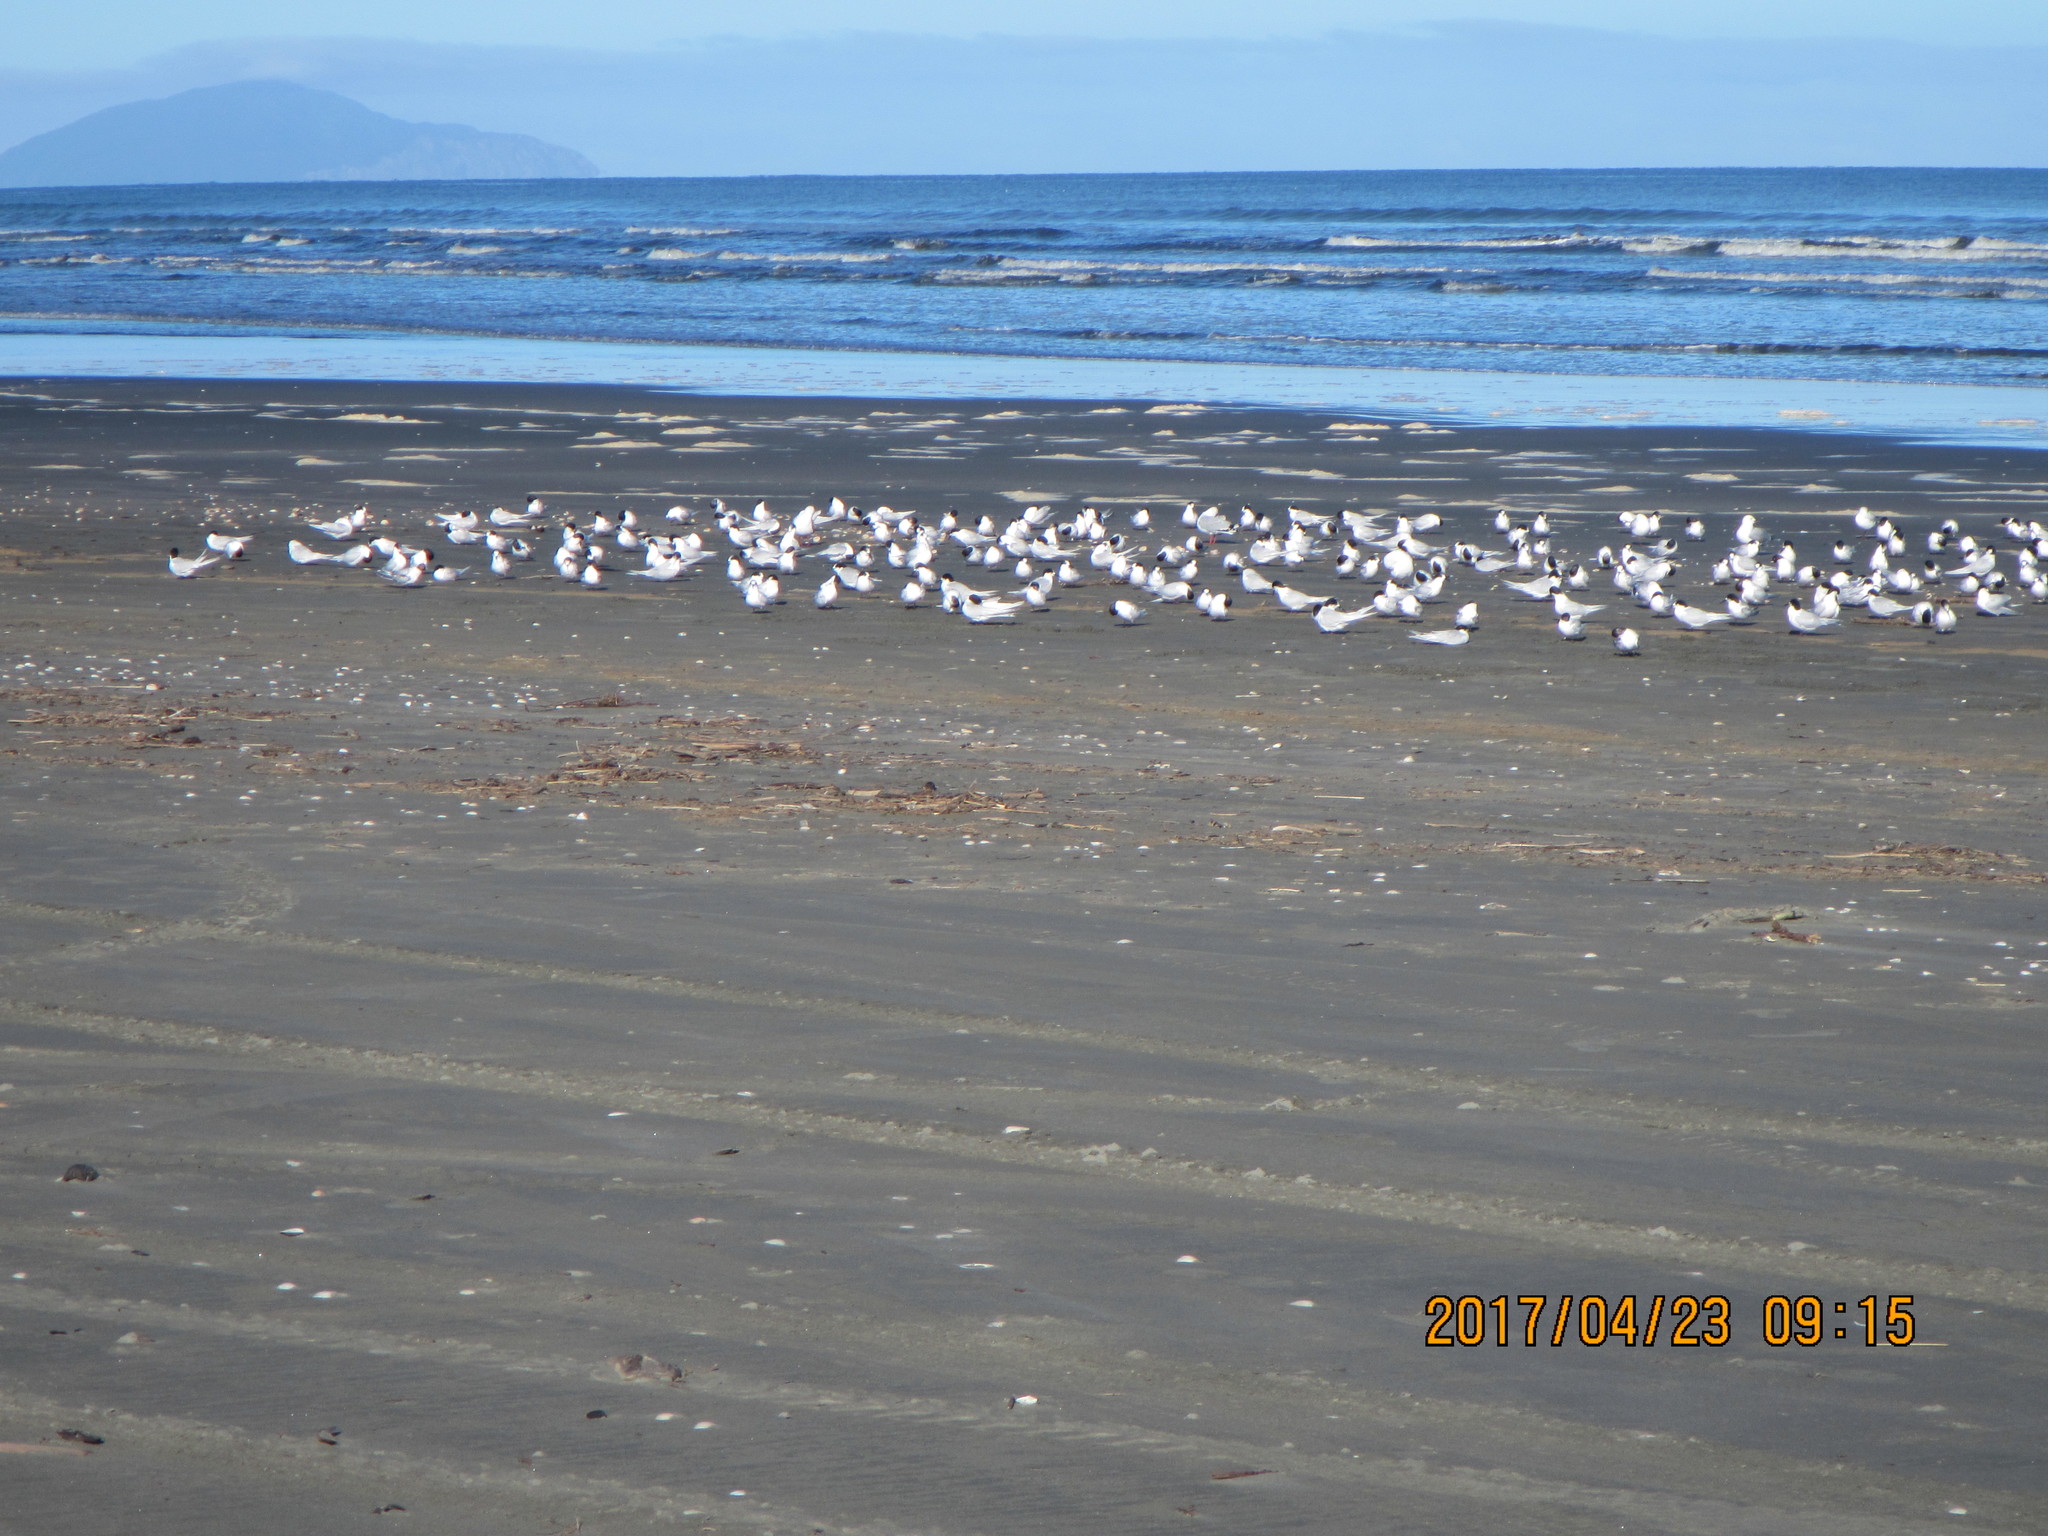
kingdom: Animalia
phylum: Chordata
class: Aves
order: Charadriiformes
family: Laridae
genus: Sterna
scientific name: Sterna striata
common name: White-fronted tern
